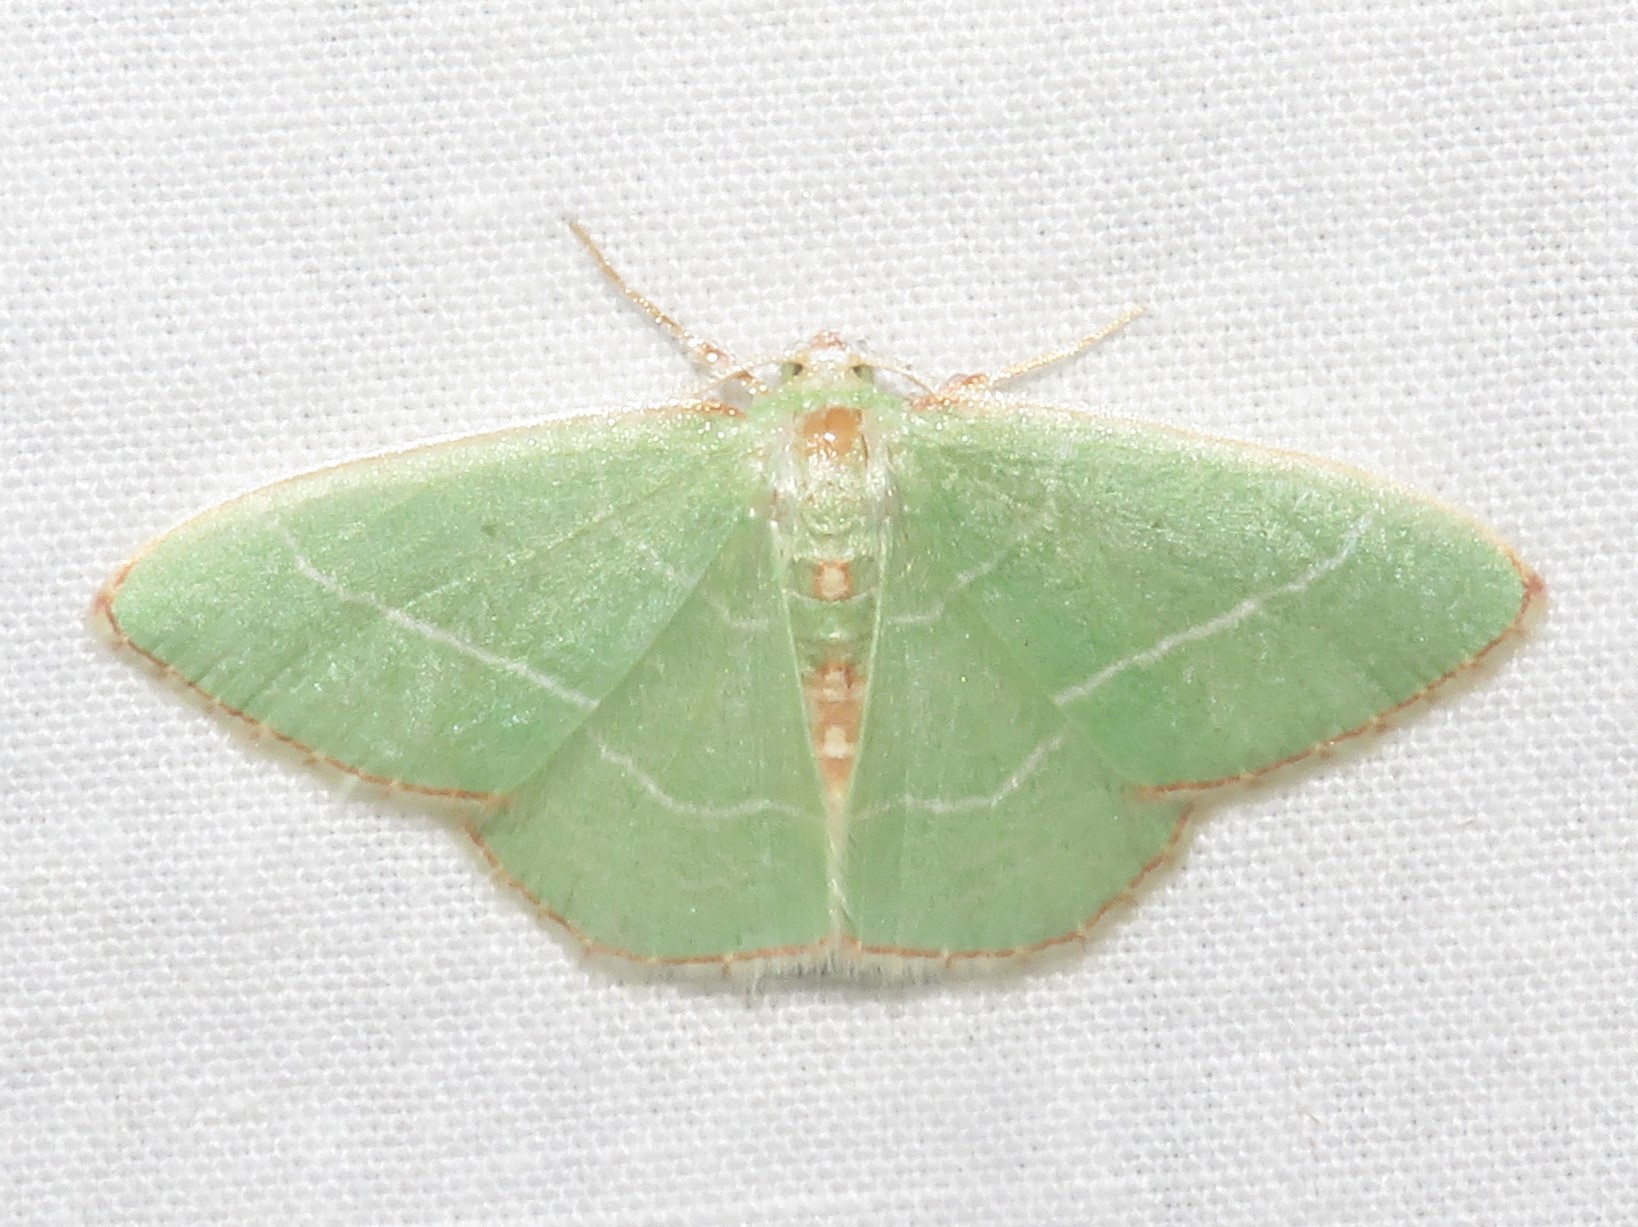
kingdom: Animalia
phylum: Arthropoda
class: Insecta
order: Lepidoptera
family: Geometridae
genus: Nemoria
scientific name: Nemoria bistriaria
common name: Red-fringed emerald
